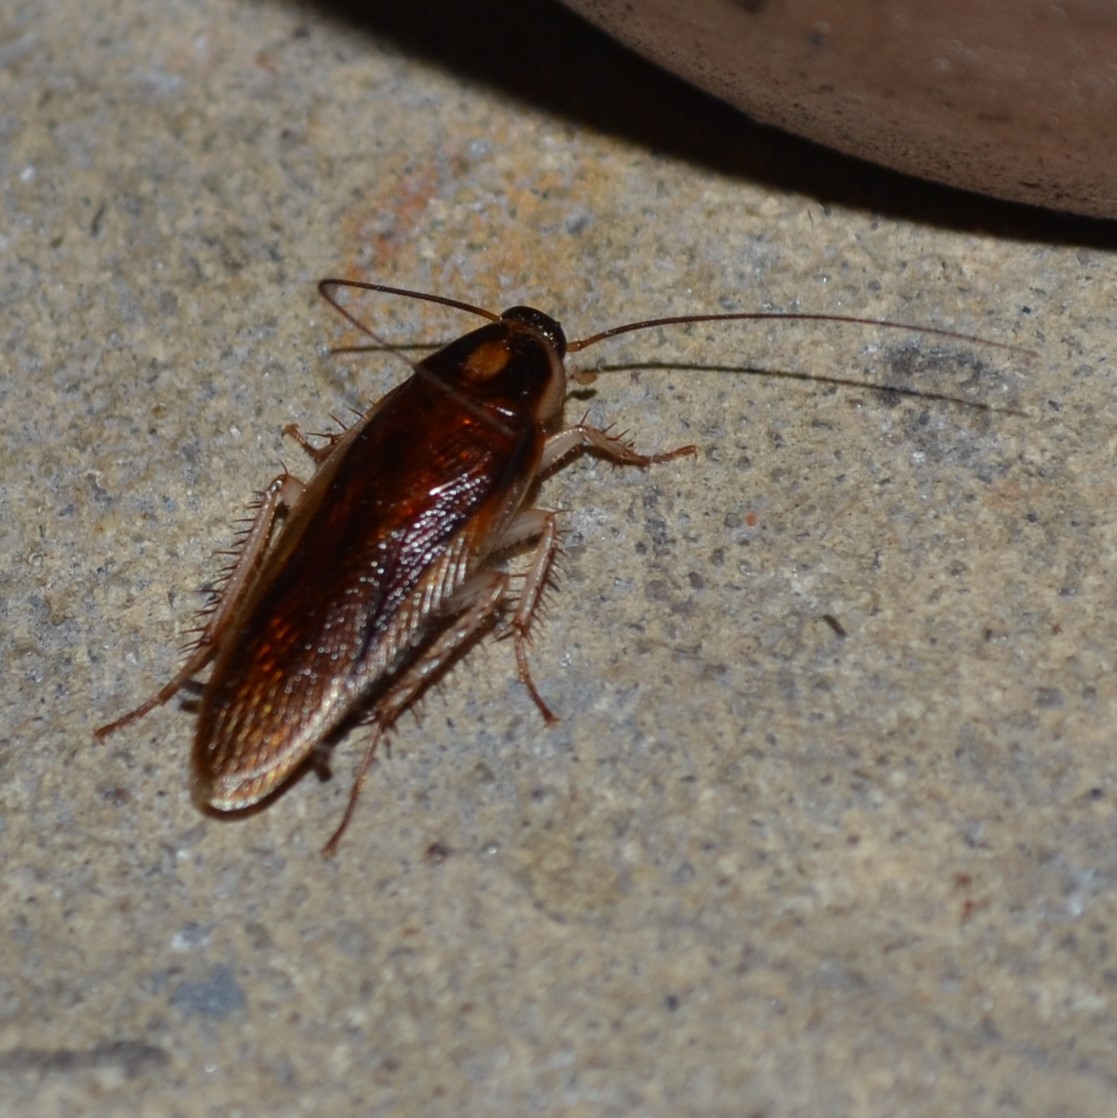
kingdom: Animalia
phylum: Arthropoda
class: Insecta
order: Blattodea
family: Ectobiidae
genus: Ischnoptera
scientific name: Ischnoptera bilunata
